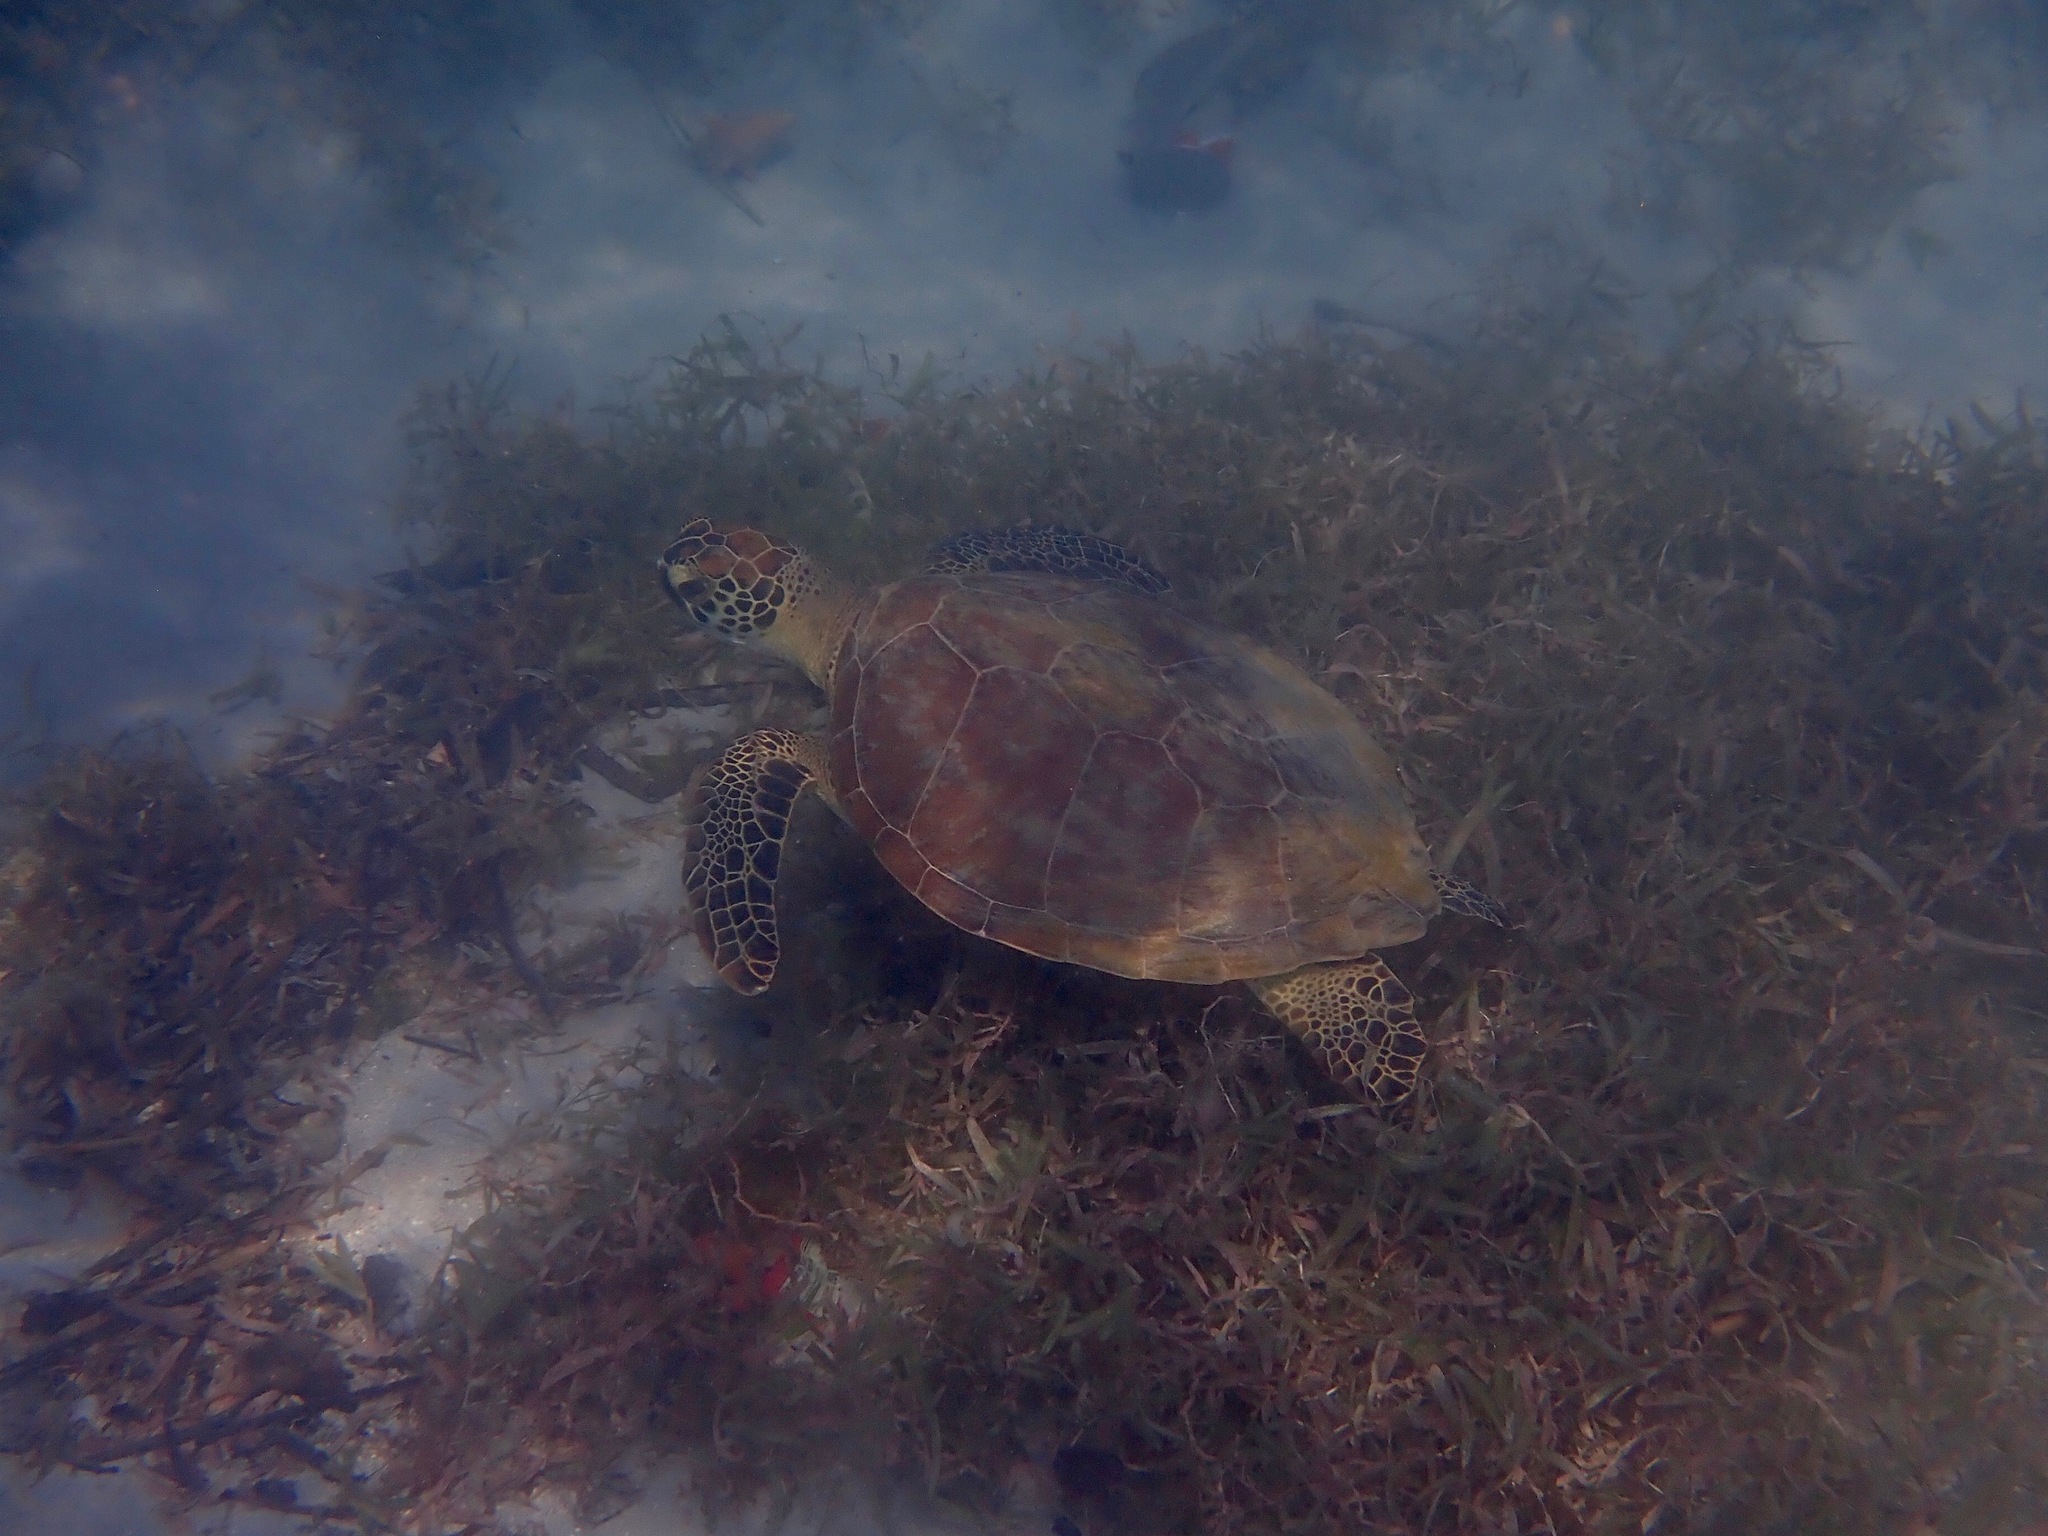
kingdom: Animalia
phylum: Chordata
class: Testudines
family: Cheloniidae
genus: Chelonia
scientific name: Chelonia mydas
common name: Green turtle
